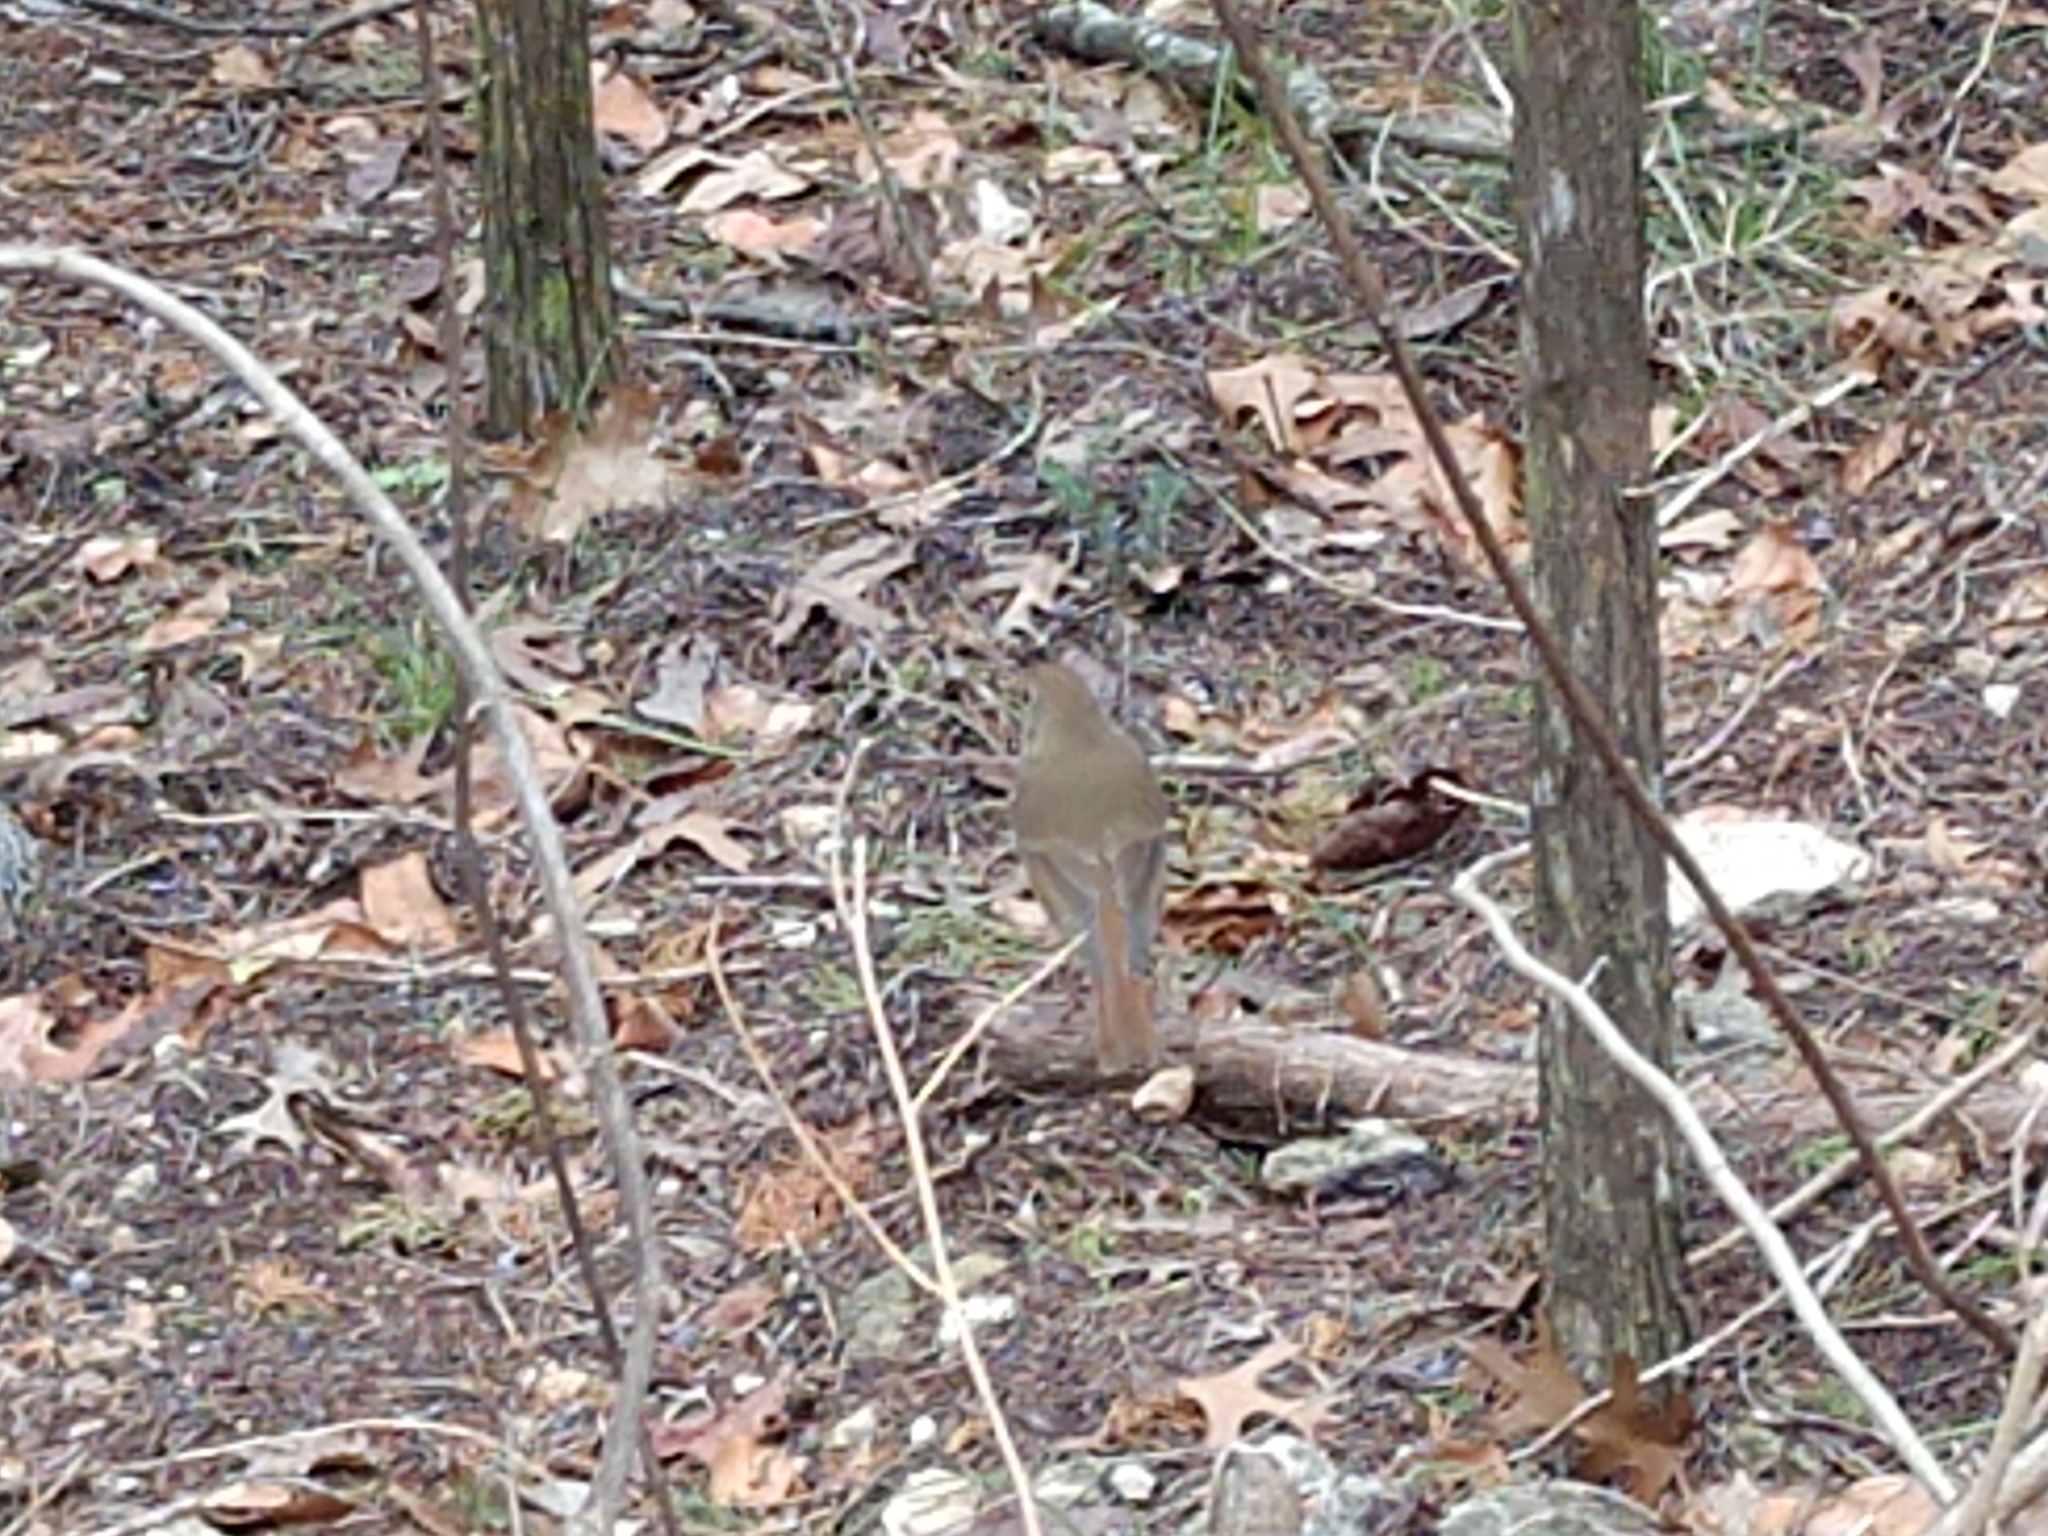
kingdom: Animalia
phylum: Chordata
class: Aves
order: Passeriformes
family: Turdidae
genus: Catharus
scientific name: Catharus guttatus
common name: Hermit thrush
